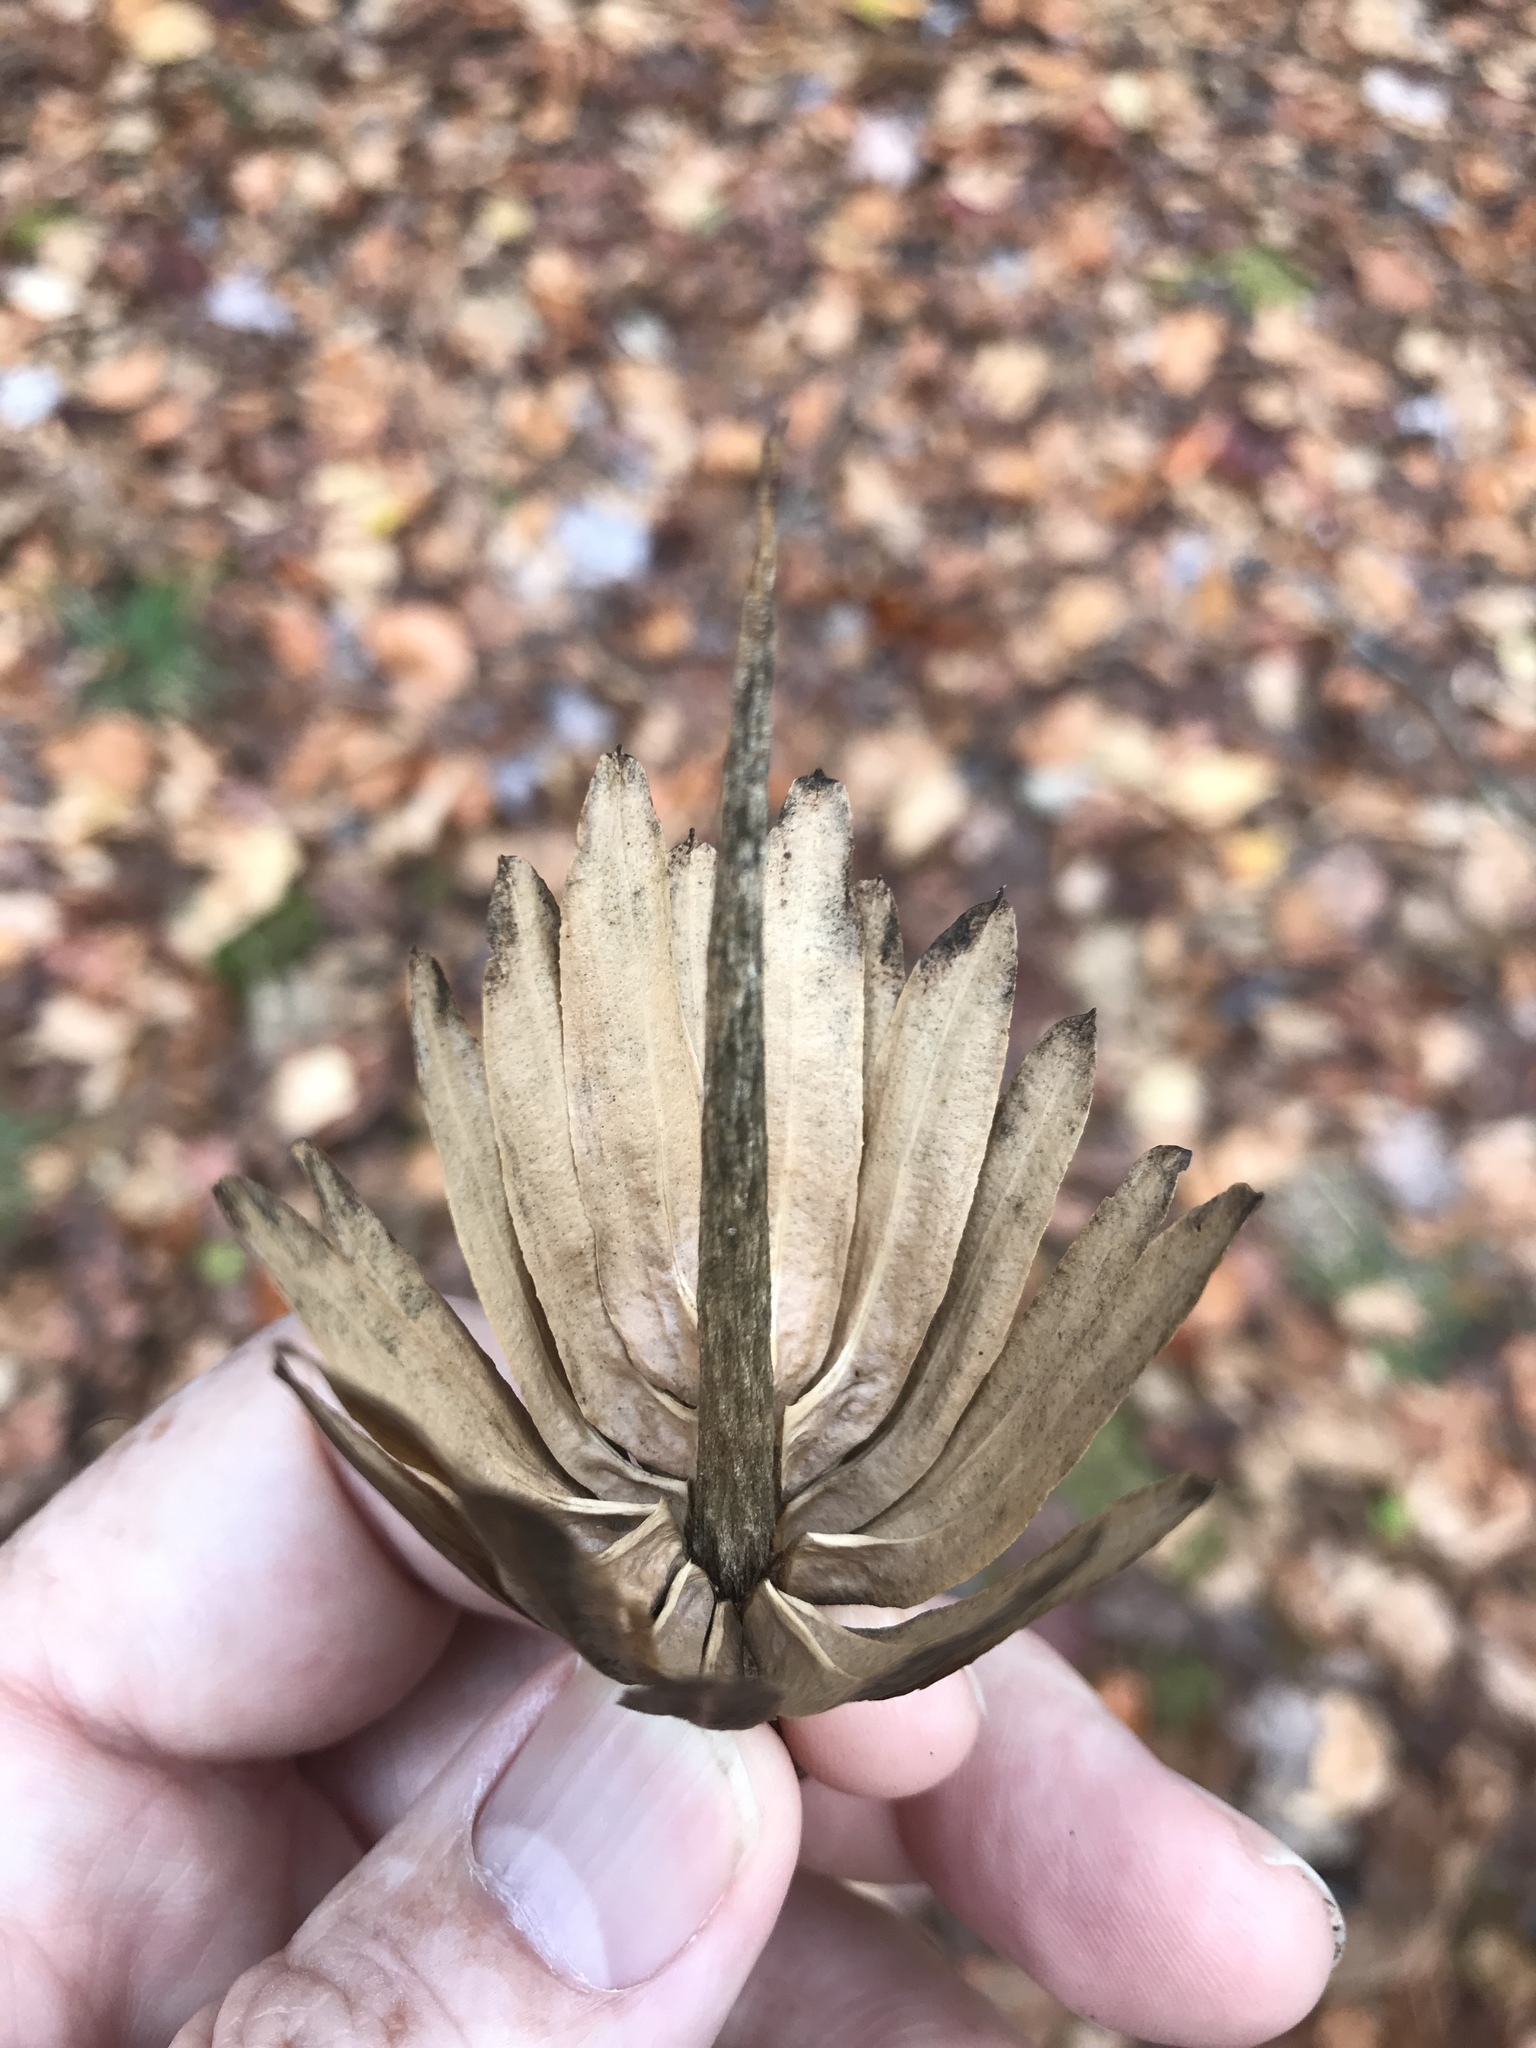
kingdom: Plantae
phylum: Tracheophyta
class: Magnoliopsida
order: Magnoliales
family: Magnoliaceae
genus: Liriodendron
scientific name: Liriodendron tulipifera
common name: Tulip tree
